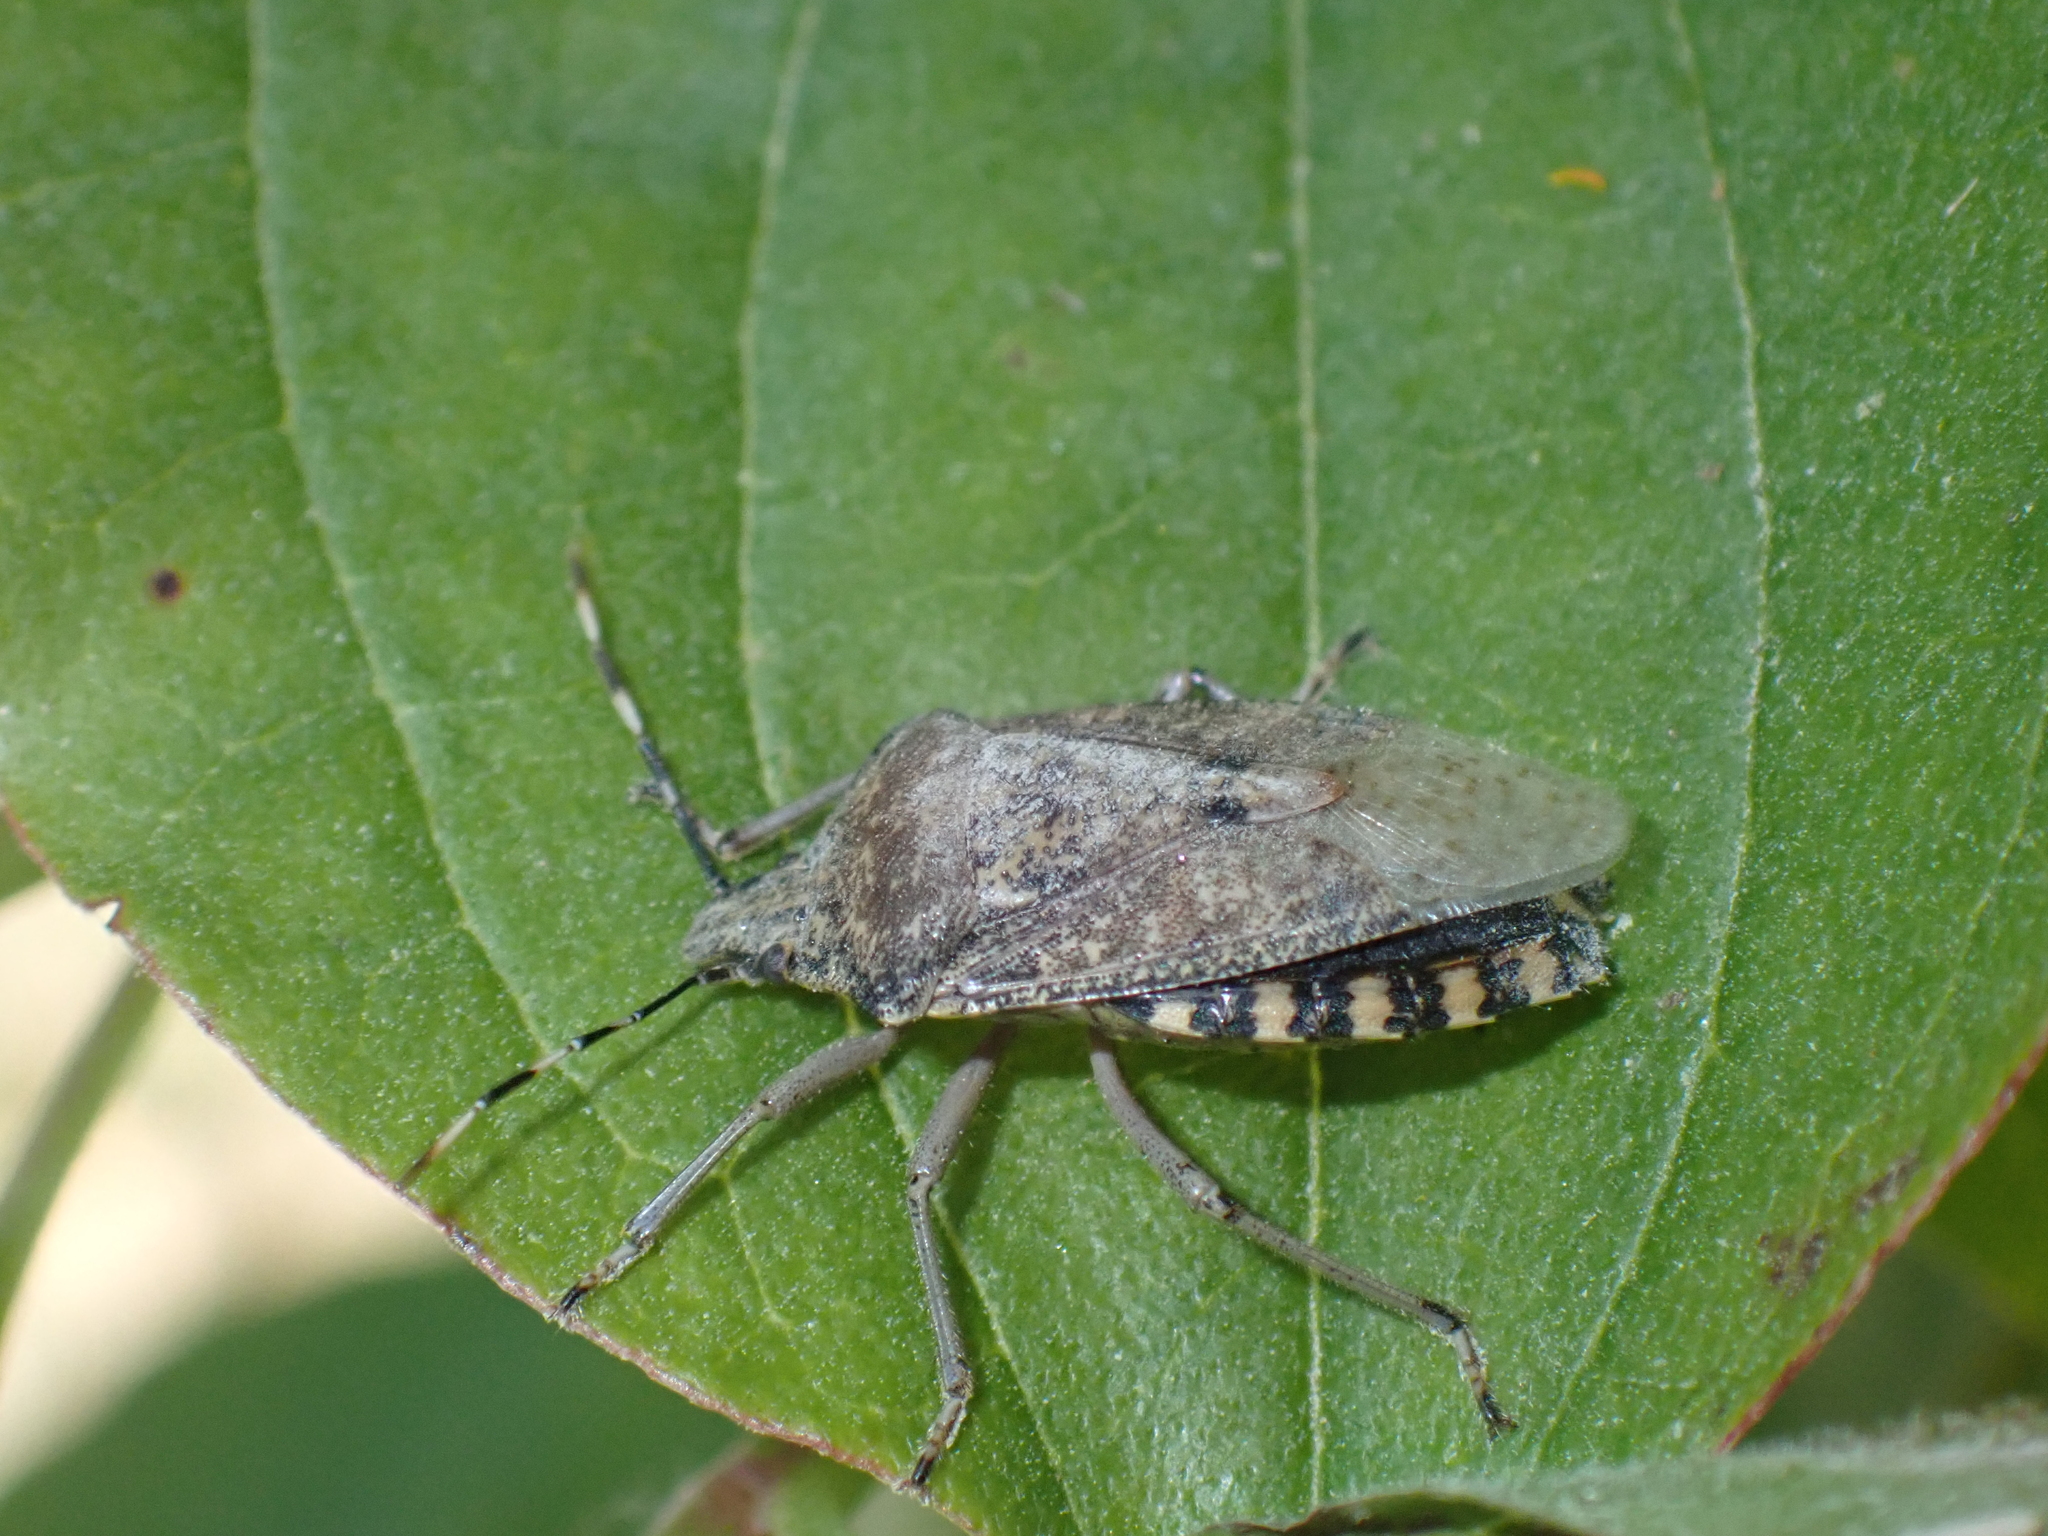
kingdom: Animalia
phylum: Arthropoda
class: Insecta
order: Hemiptera
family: Pentatomidae
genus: Rhaphigaster
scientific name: Rhaphigaster nebulosa
